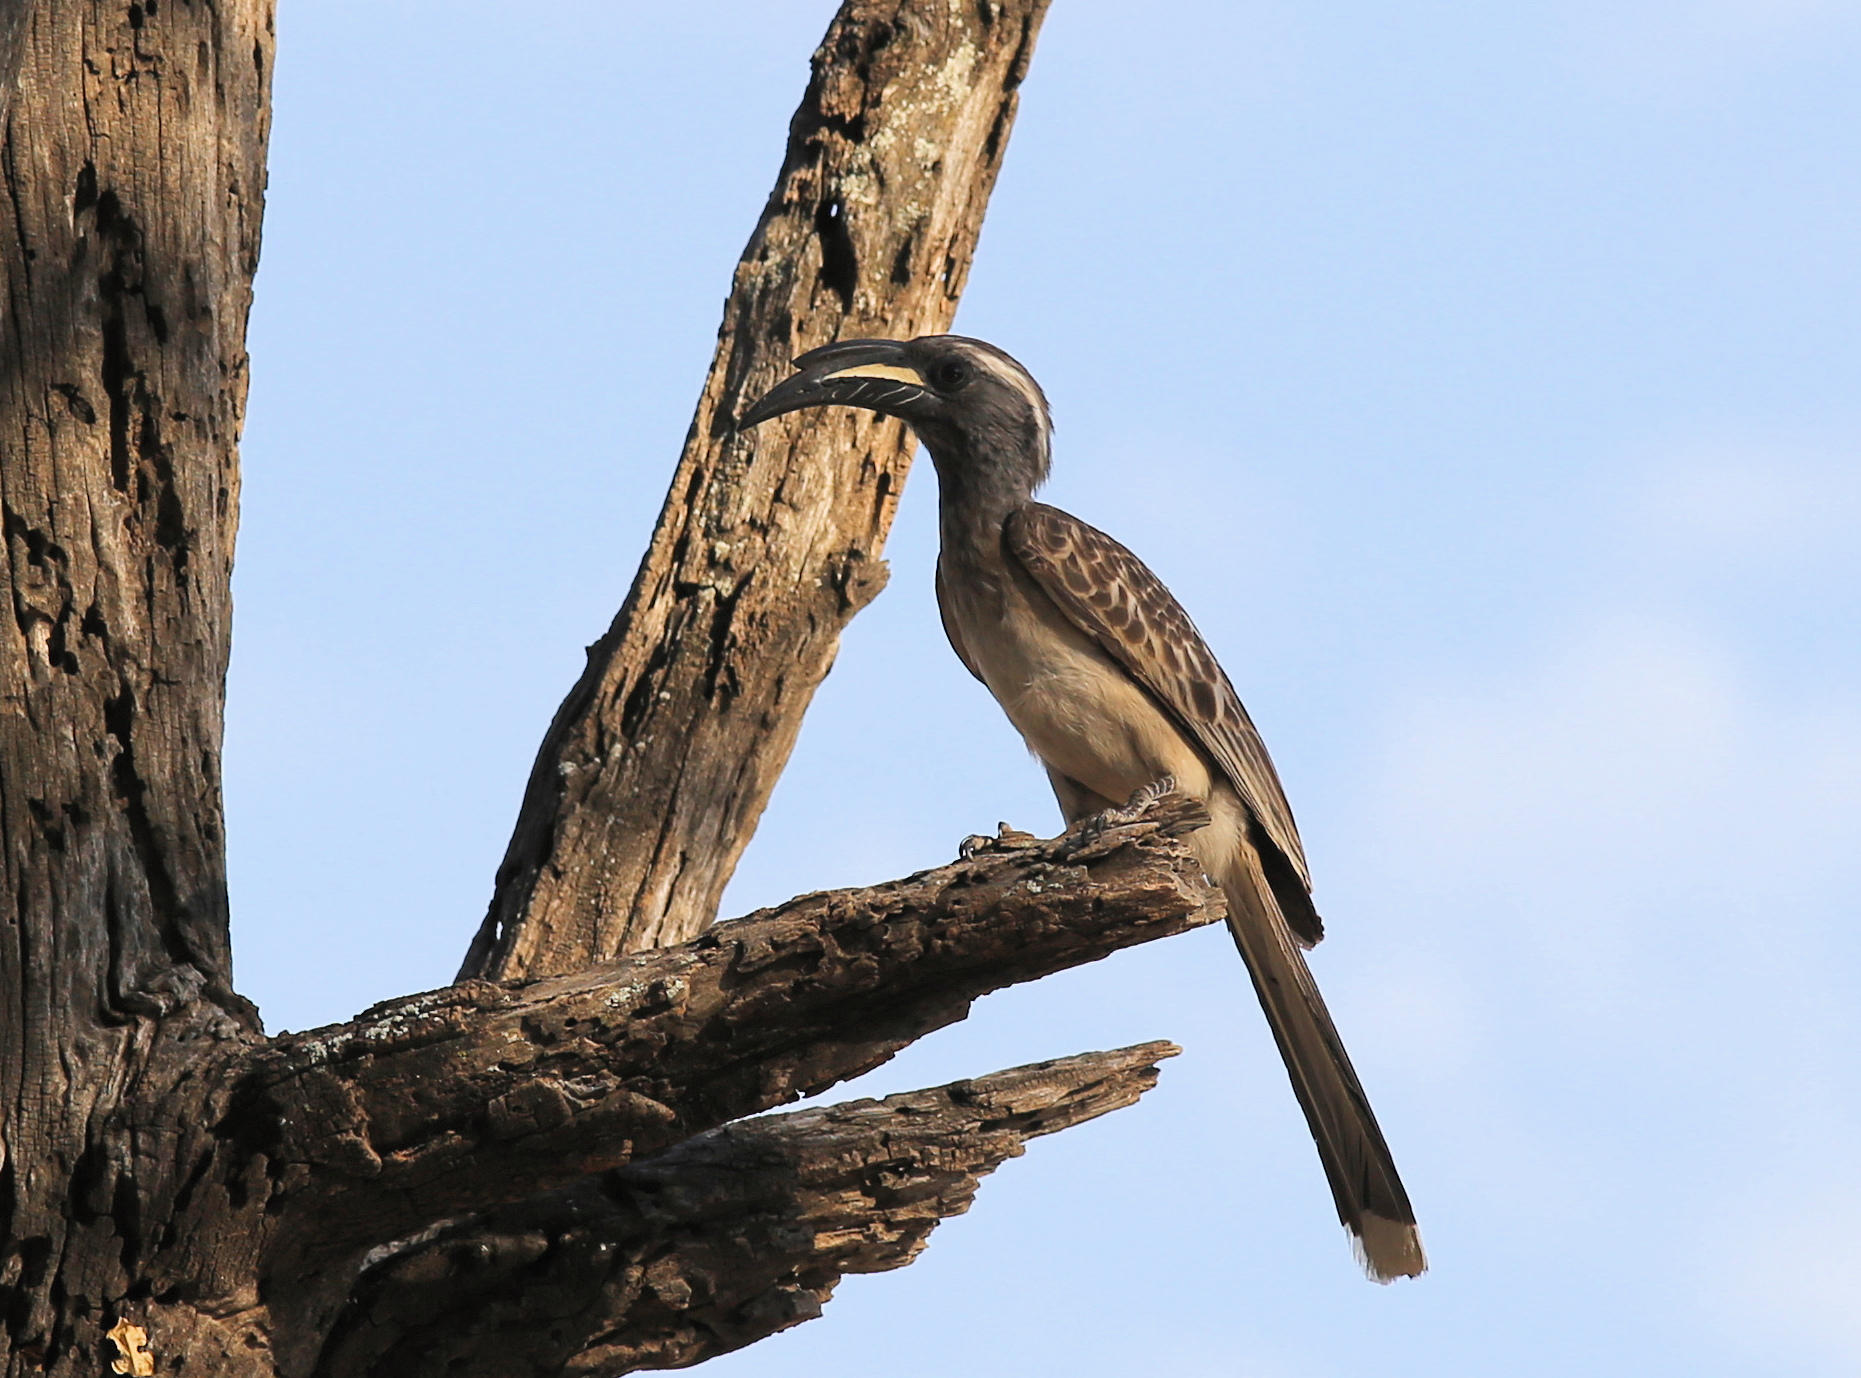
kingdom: Animalia
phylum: Chordata
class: Aves
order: Bucerotiformes
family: Bucerotidae
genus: Lophoceros
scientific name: Lophoceros nasutus
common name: African grey hornbill
